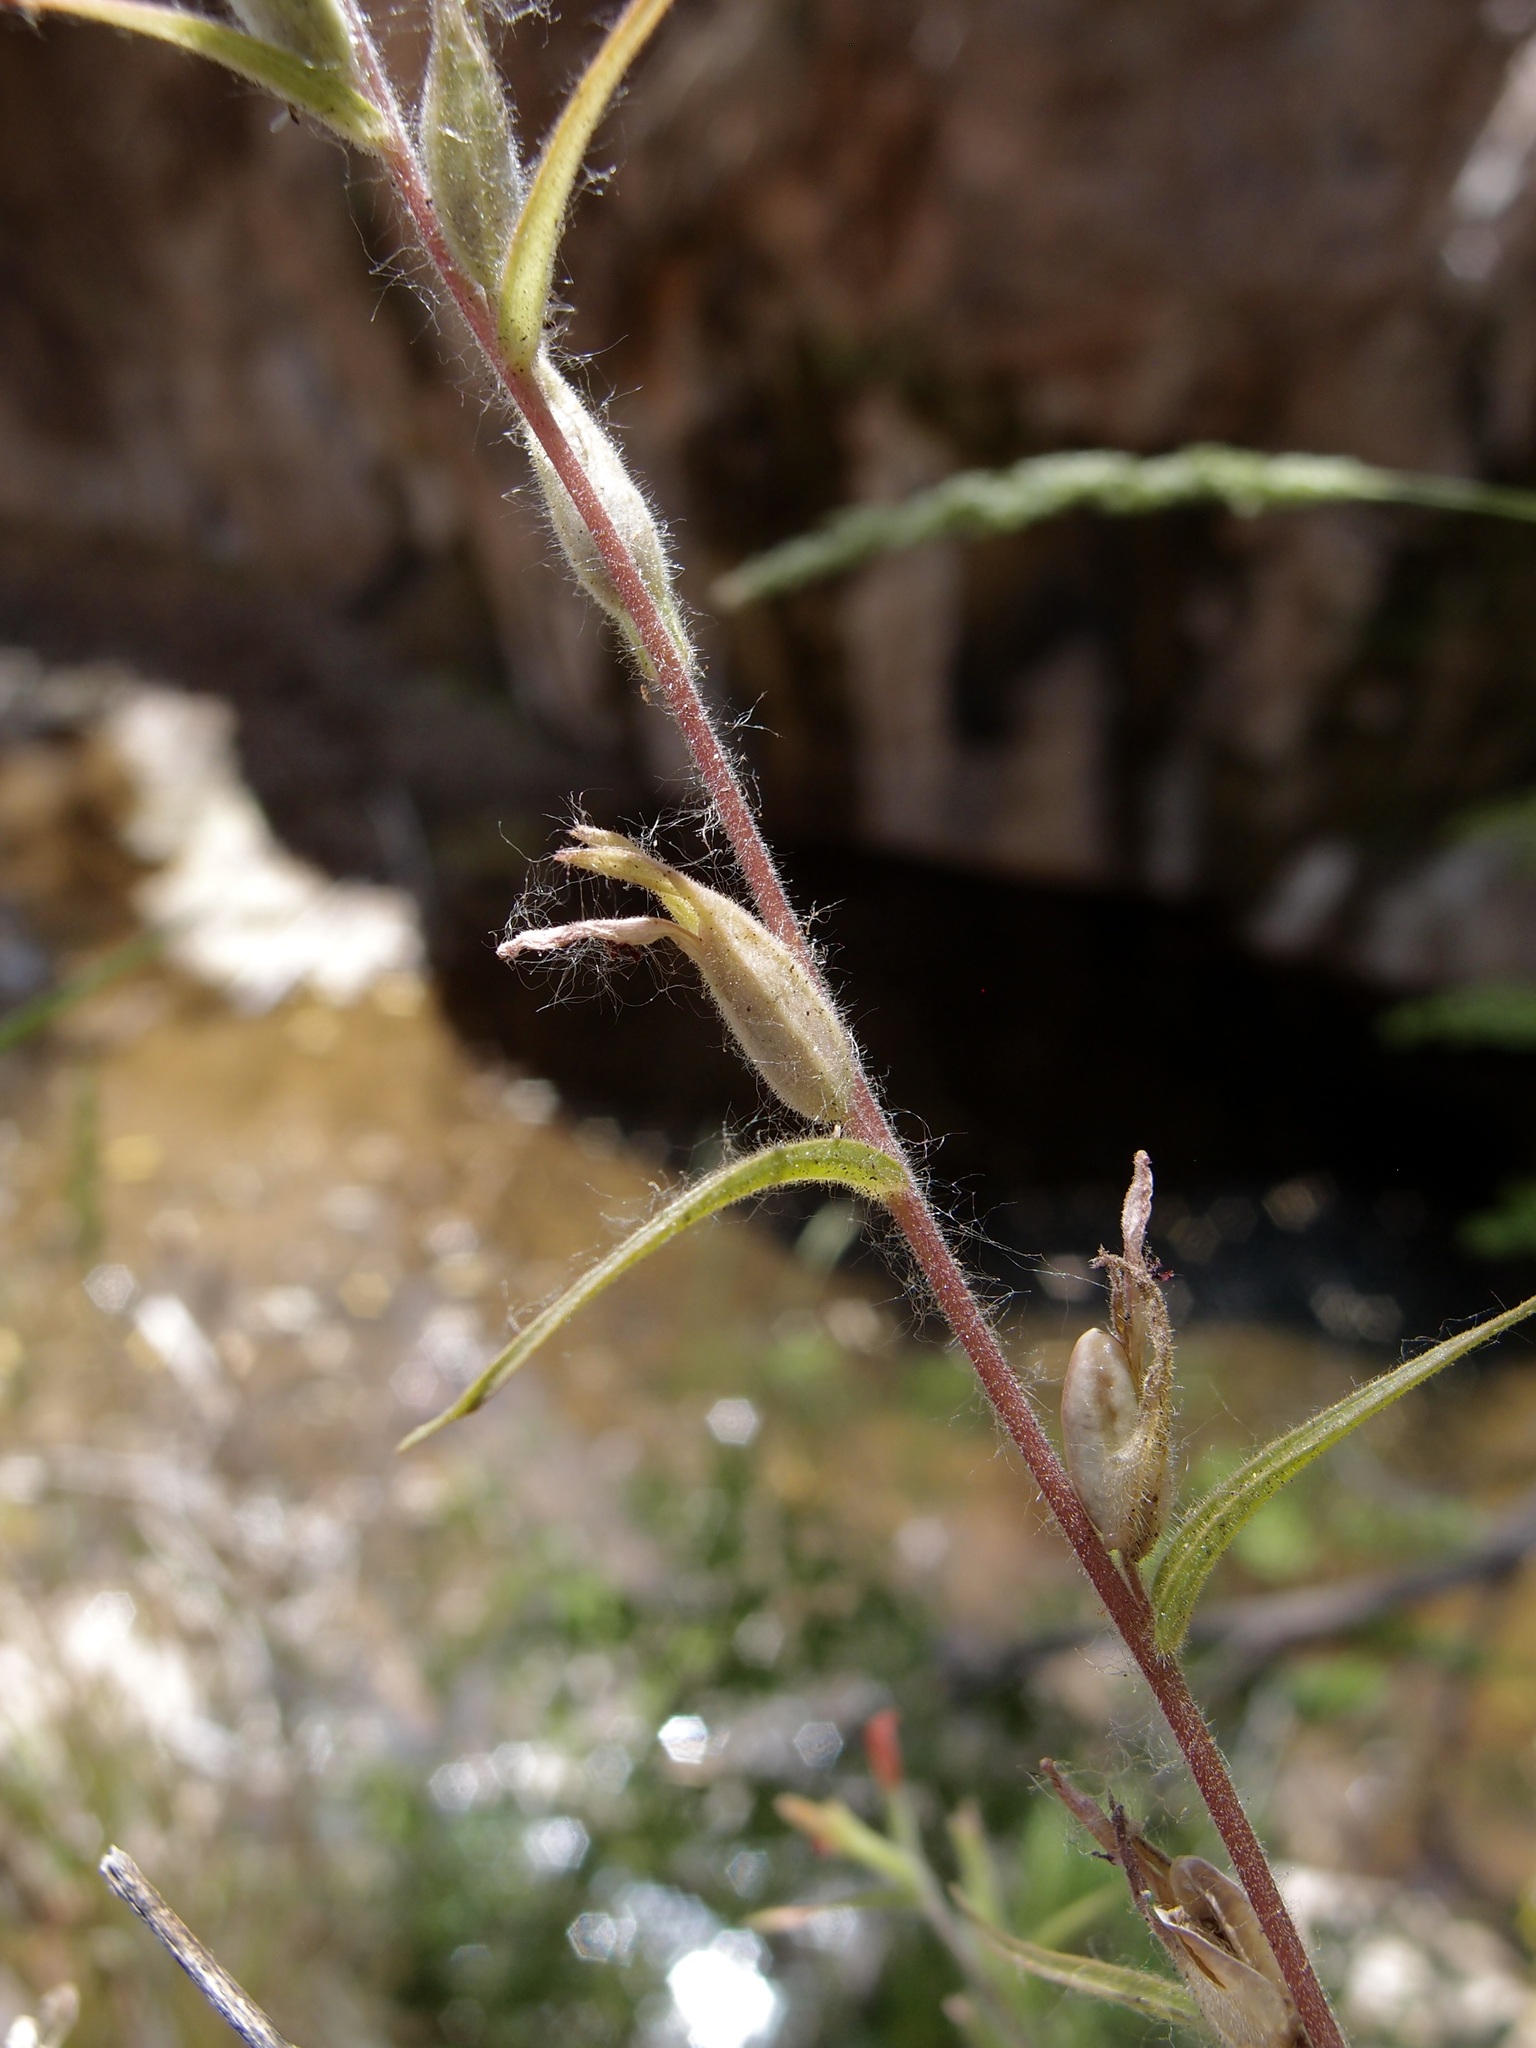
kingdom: Plantae
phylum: Tracheophyta
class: Magnoliopsida
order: Lamiales
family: Orobanchaceae
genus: Castilleja
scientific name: Castilleja minor
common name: Seep paintbrush
